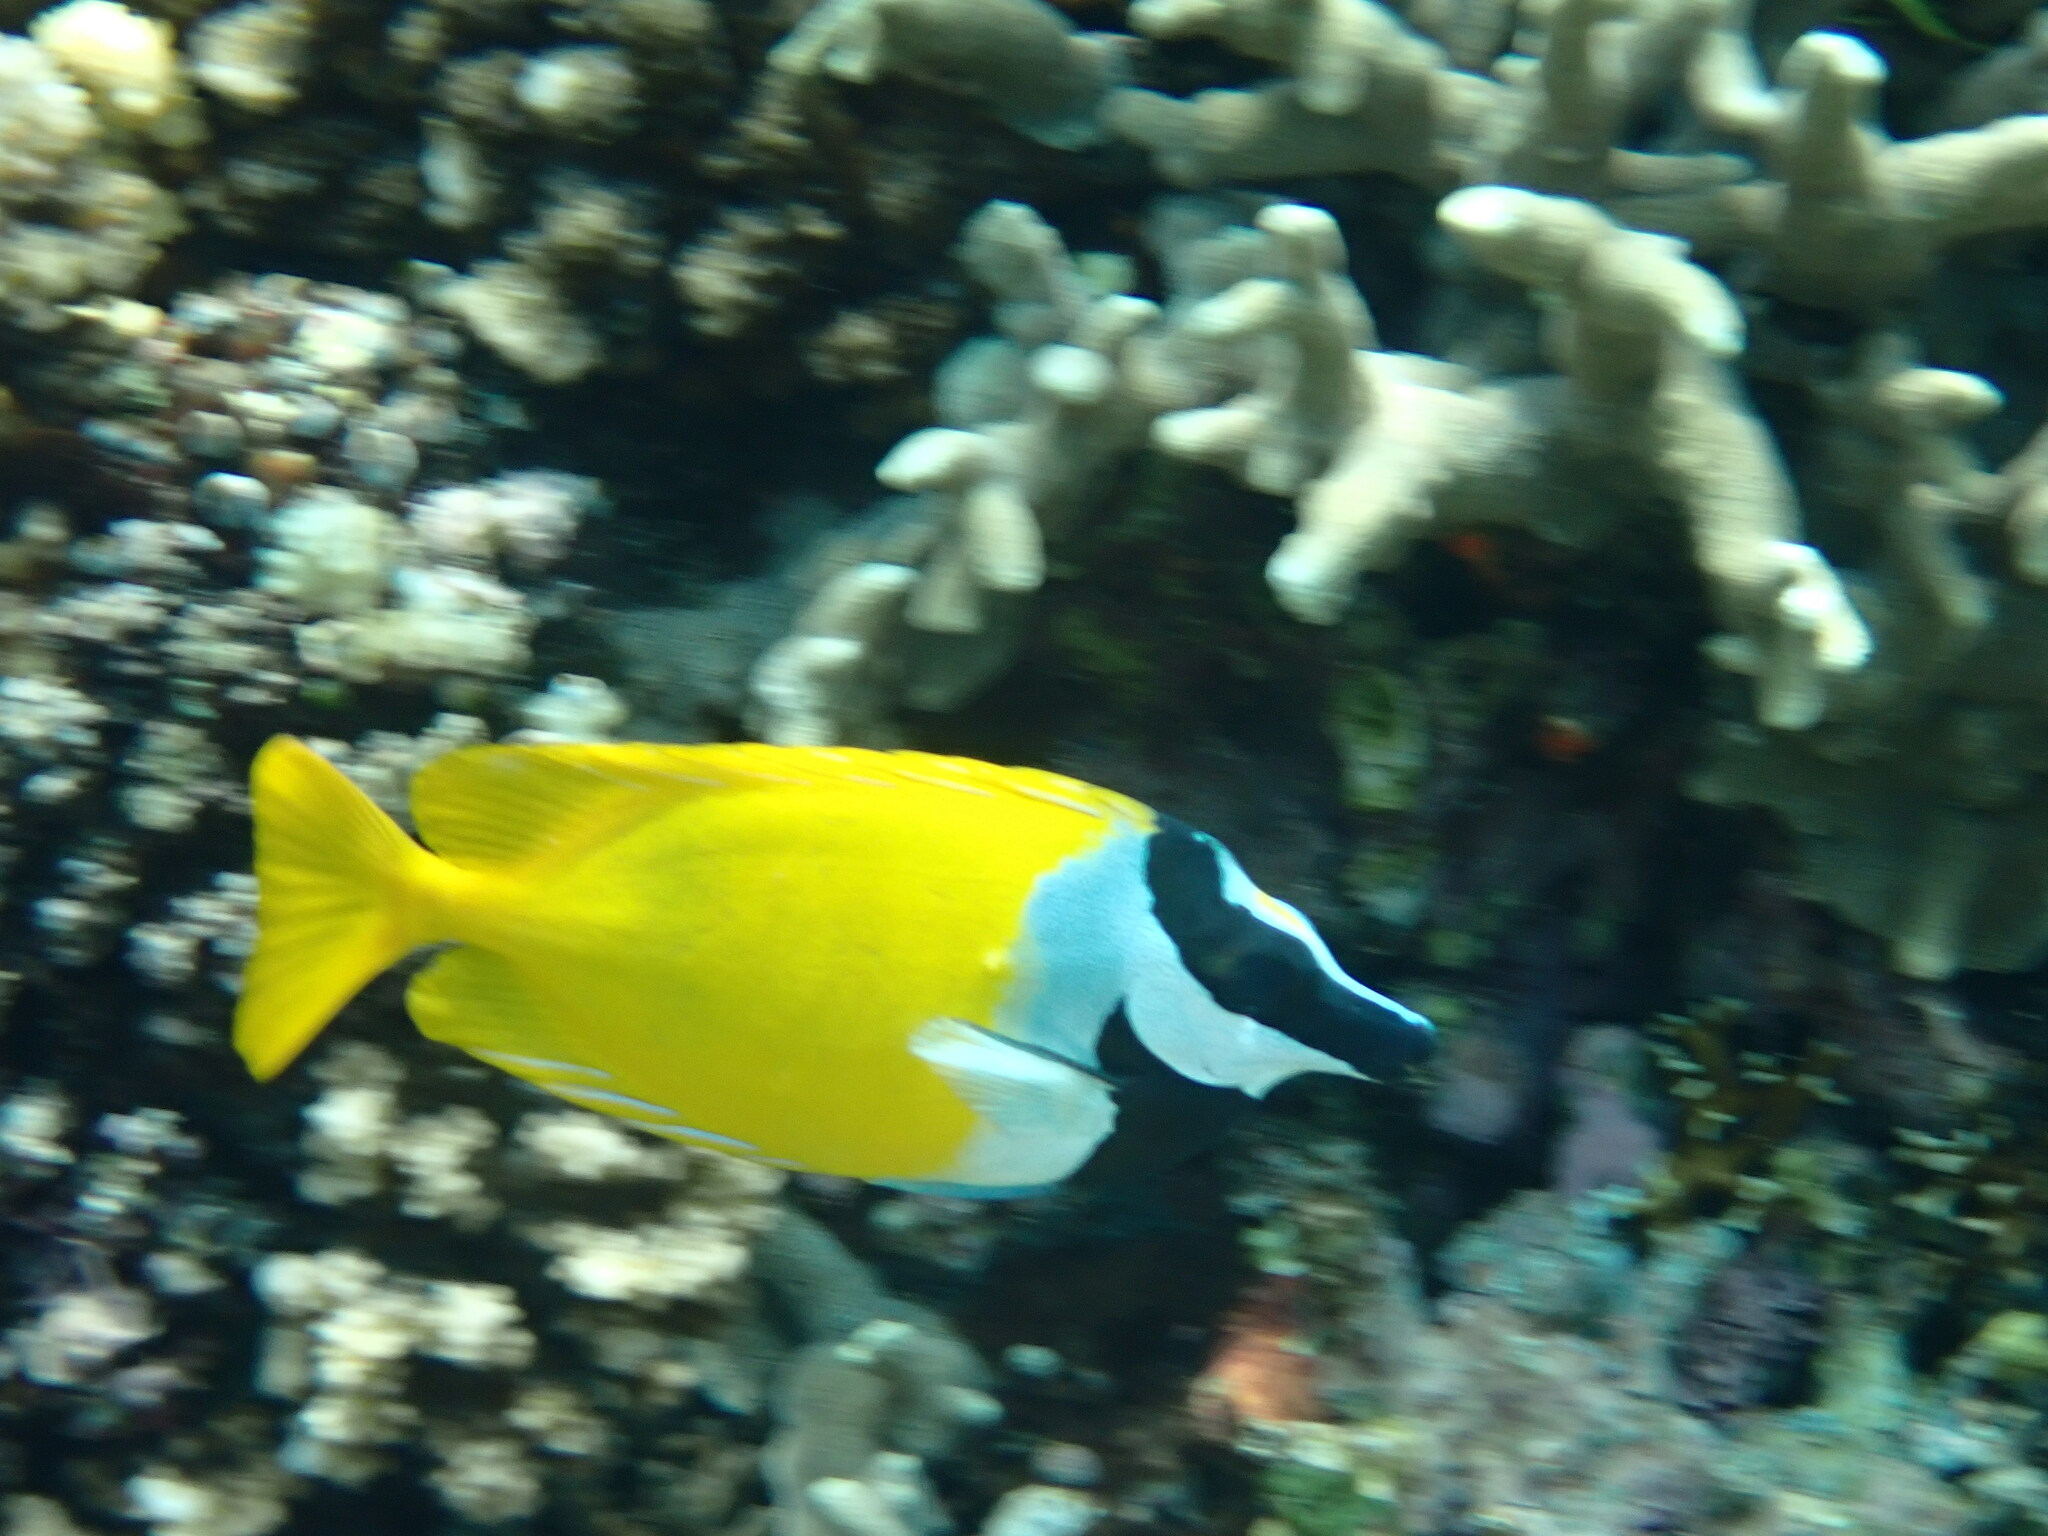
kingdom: Animalia
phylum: Chordata
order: Perciformes
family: Siganidae
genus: Siganus
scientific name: Siganus vulpinus
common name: Foxface
